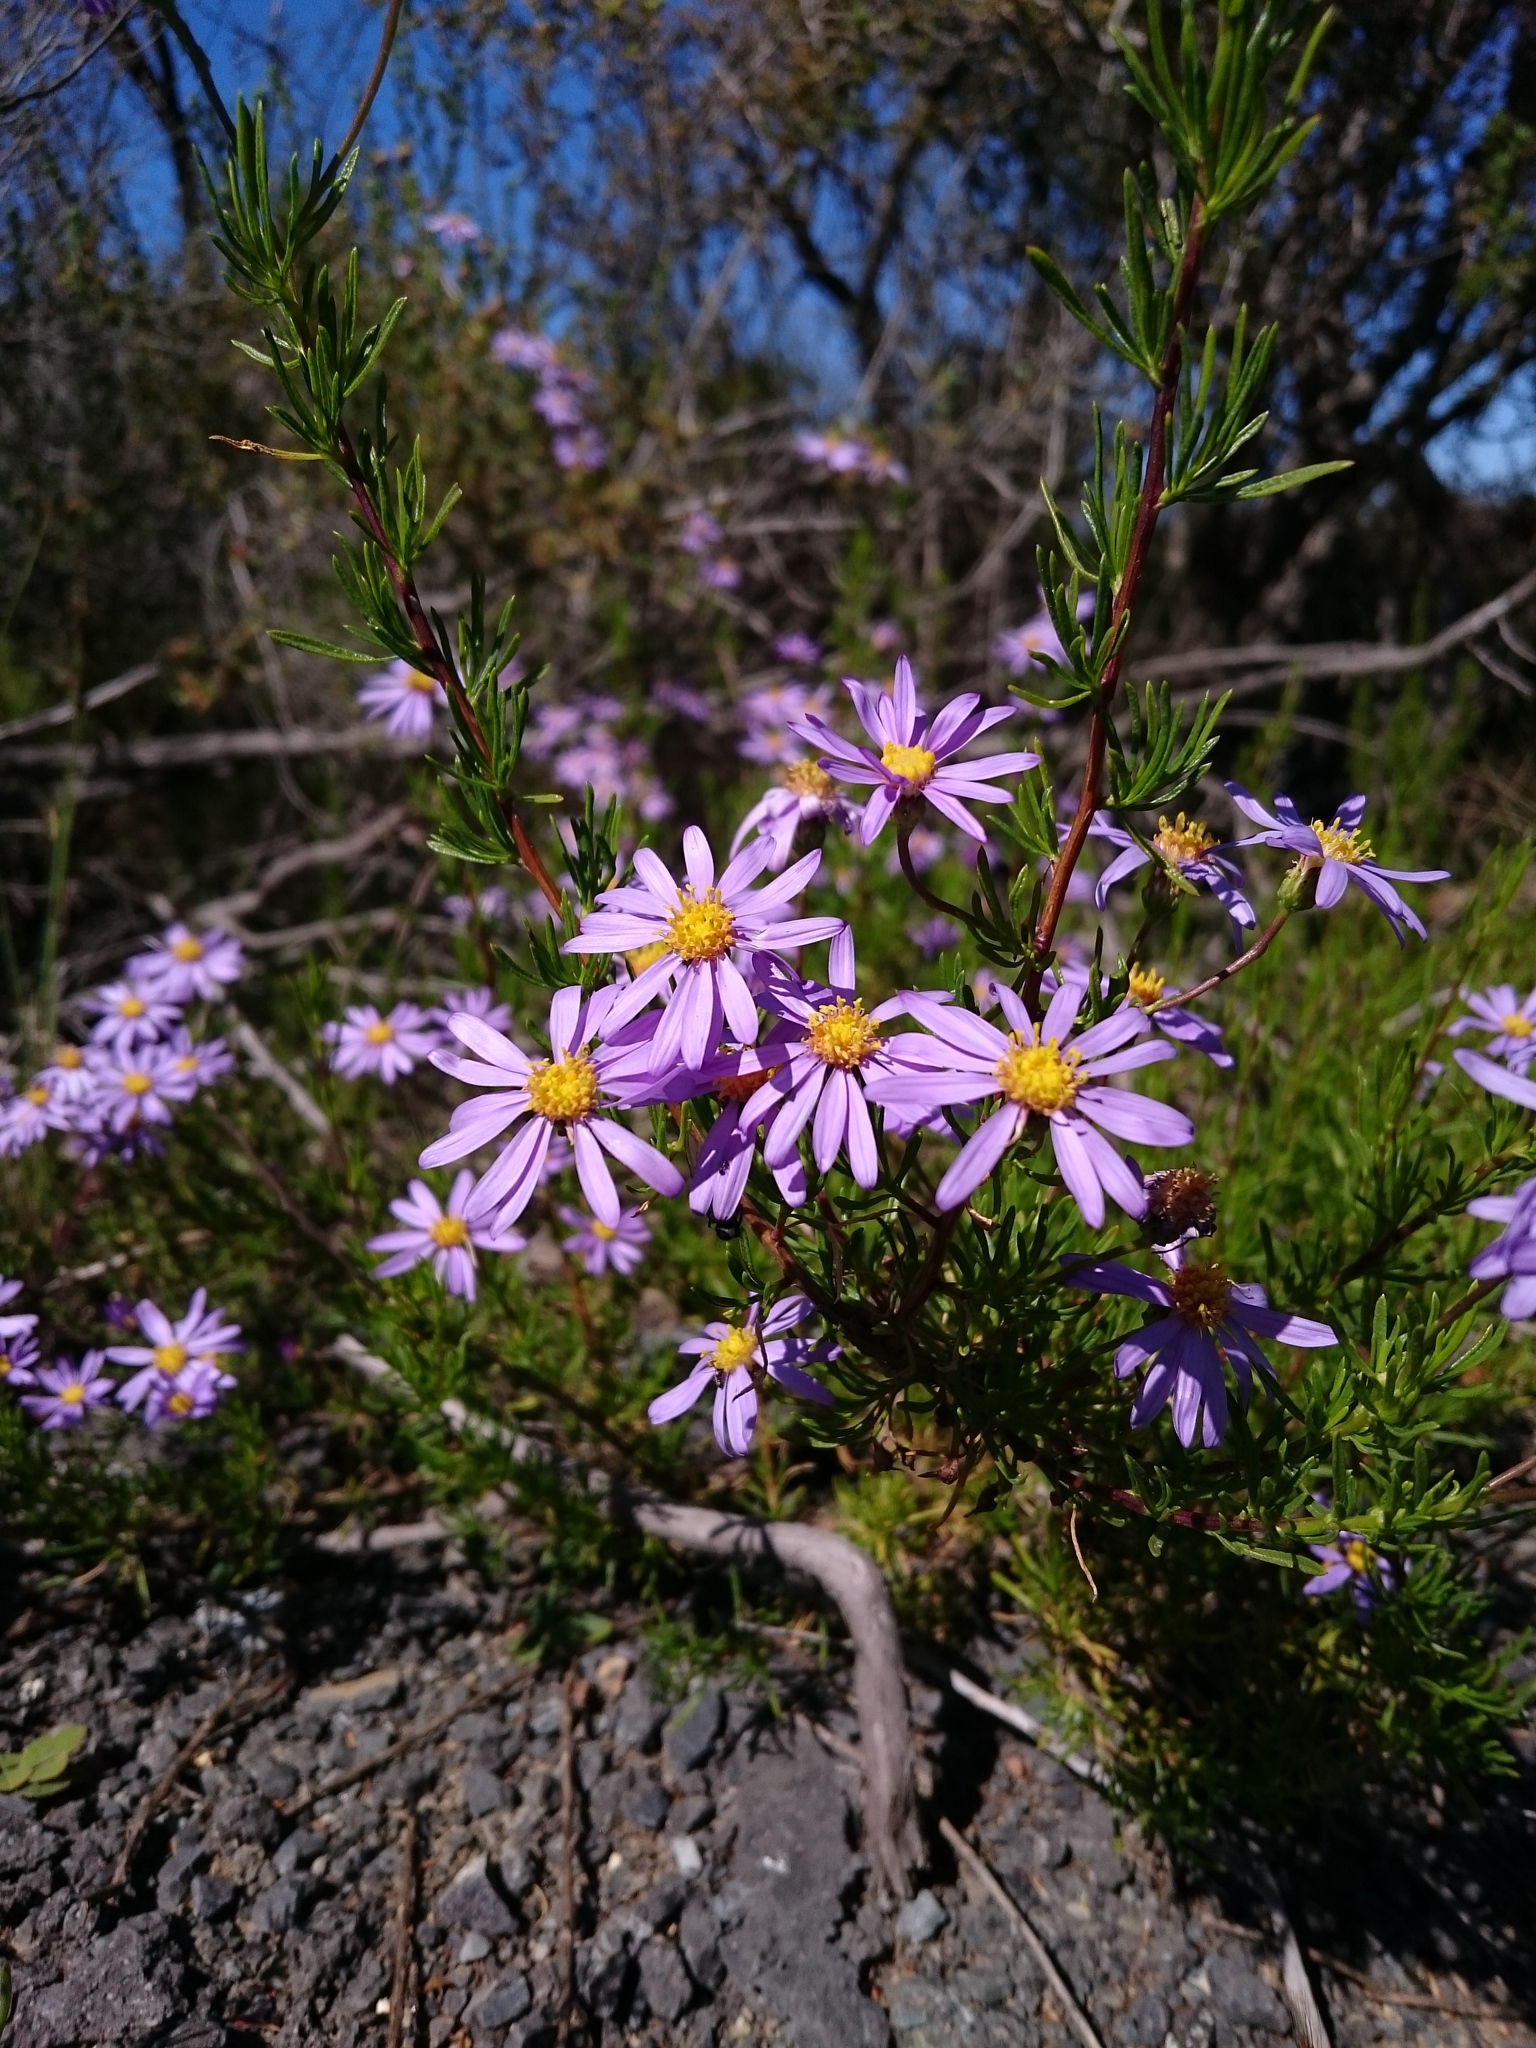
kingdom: Plantae
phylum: Tracheophyta
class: Magnoliopsida
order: Asterales
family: Asteraceae
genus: Felicia
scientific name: Felicia filifolia
